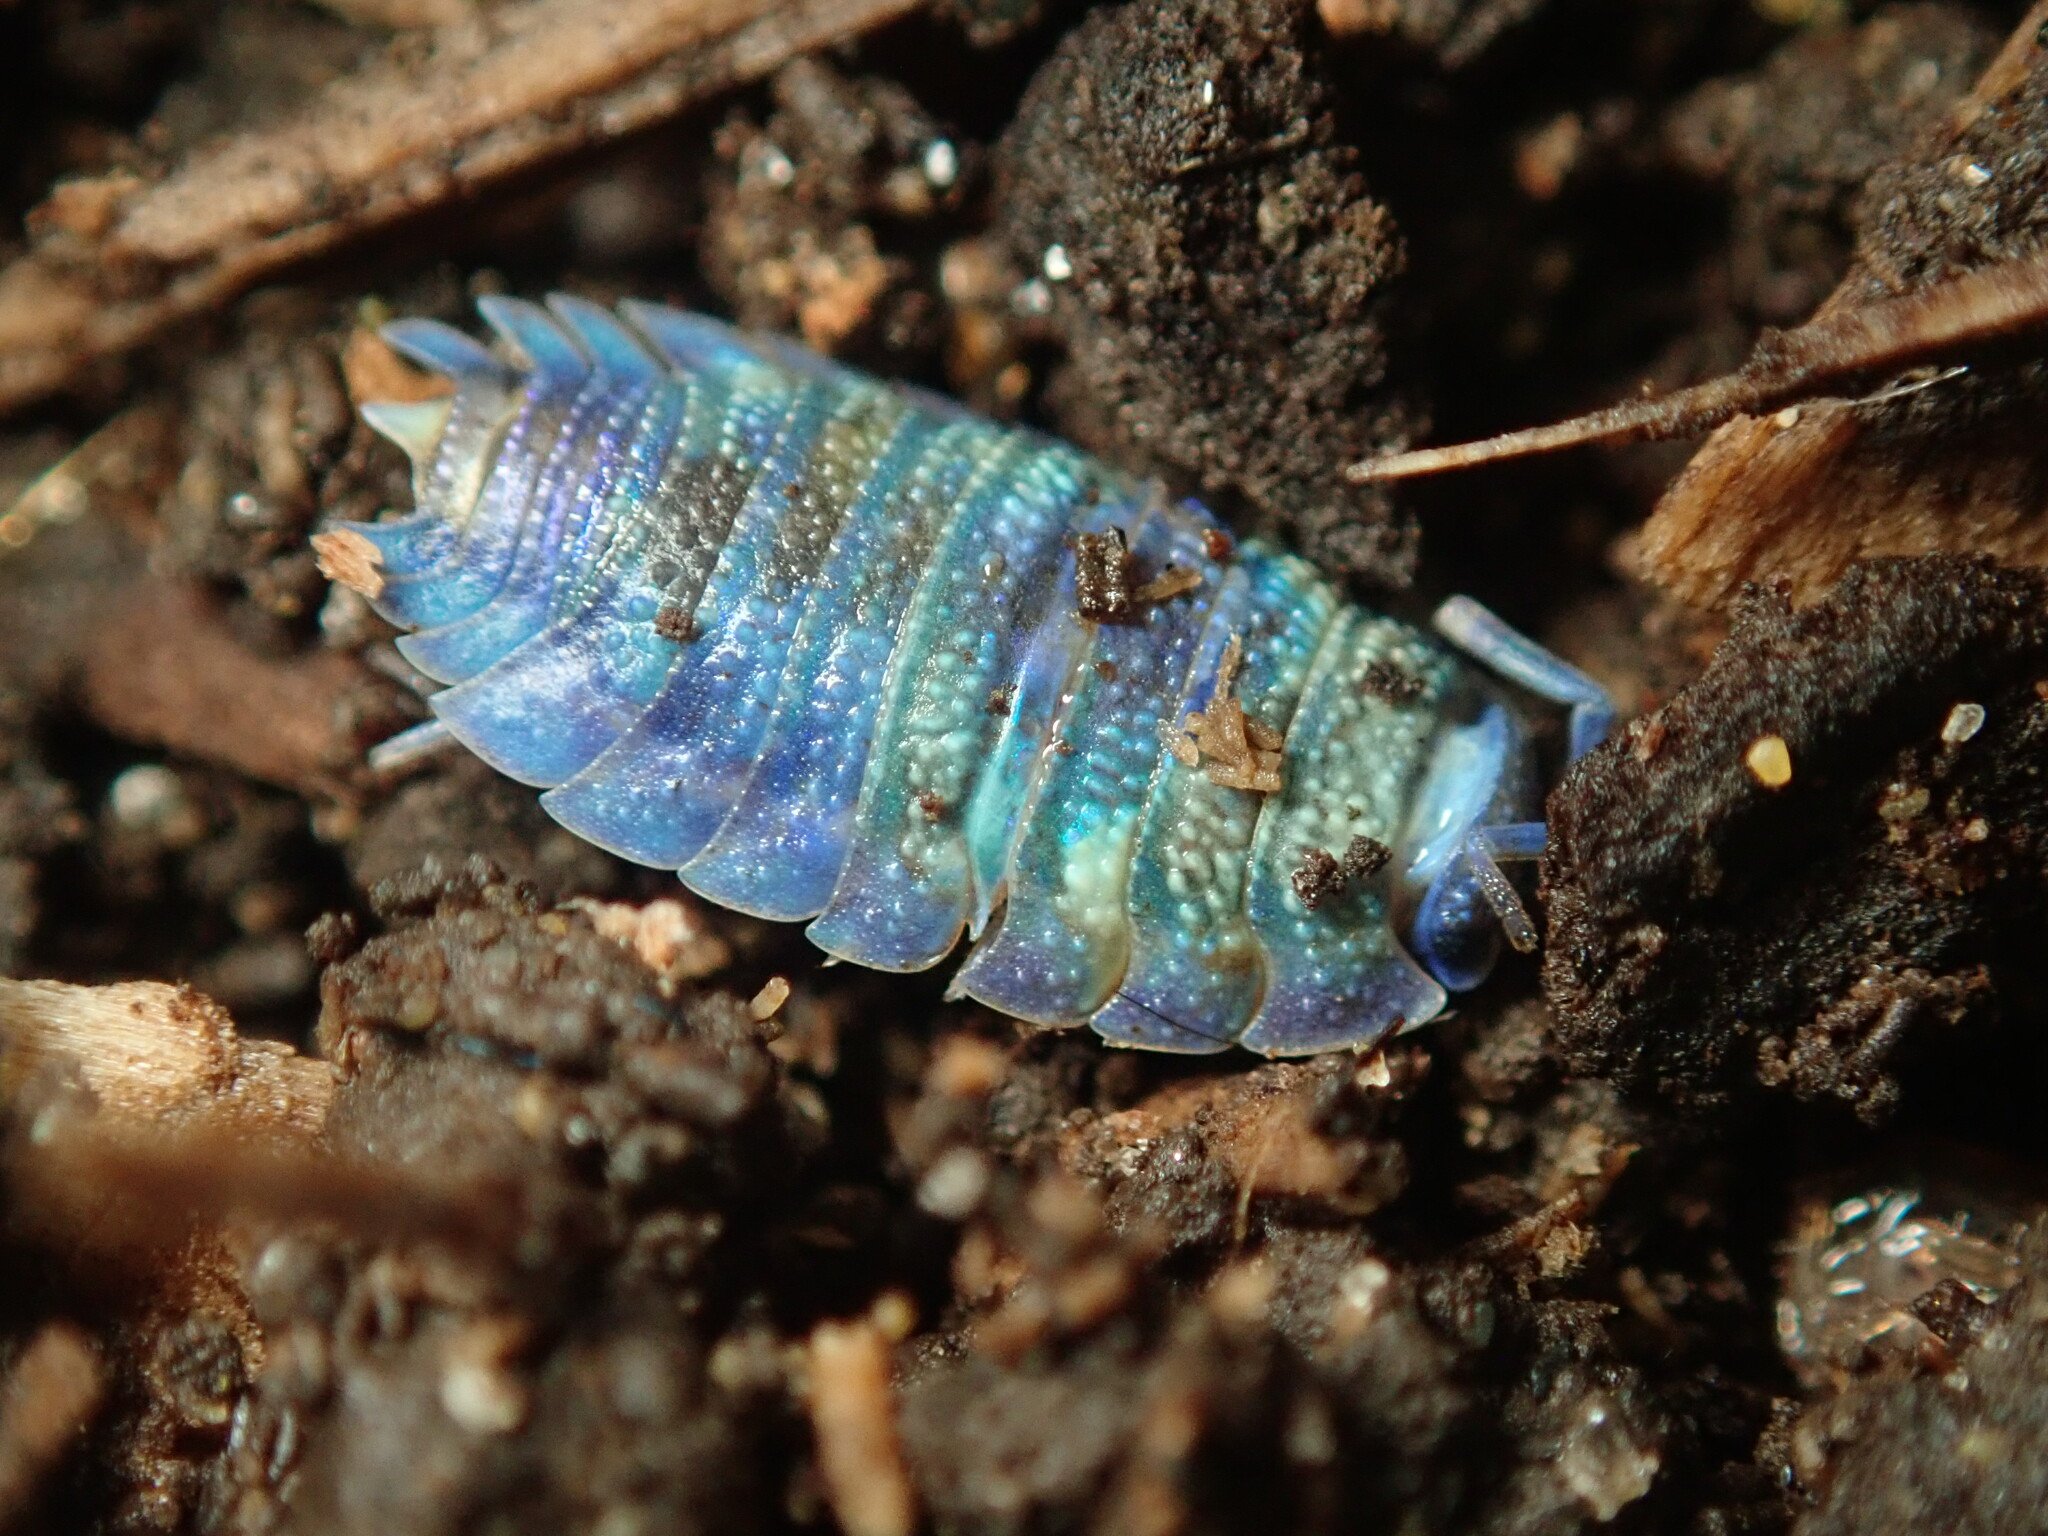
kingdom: Viruses
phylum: Nucleocytoviricota
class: Megaviricetes
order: Pimascovirales
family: Iridoviridae
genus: Iridovirus
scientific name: Iridovirus Invertebrate iridescent virus 31
